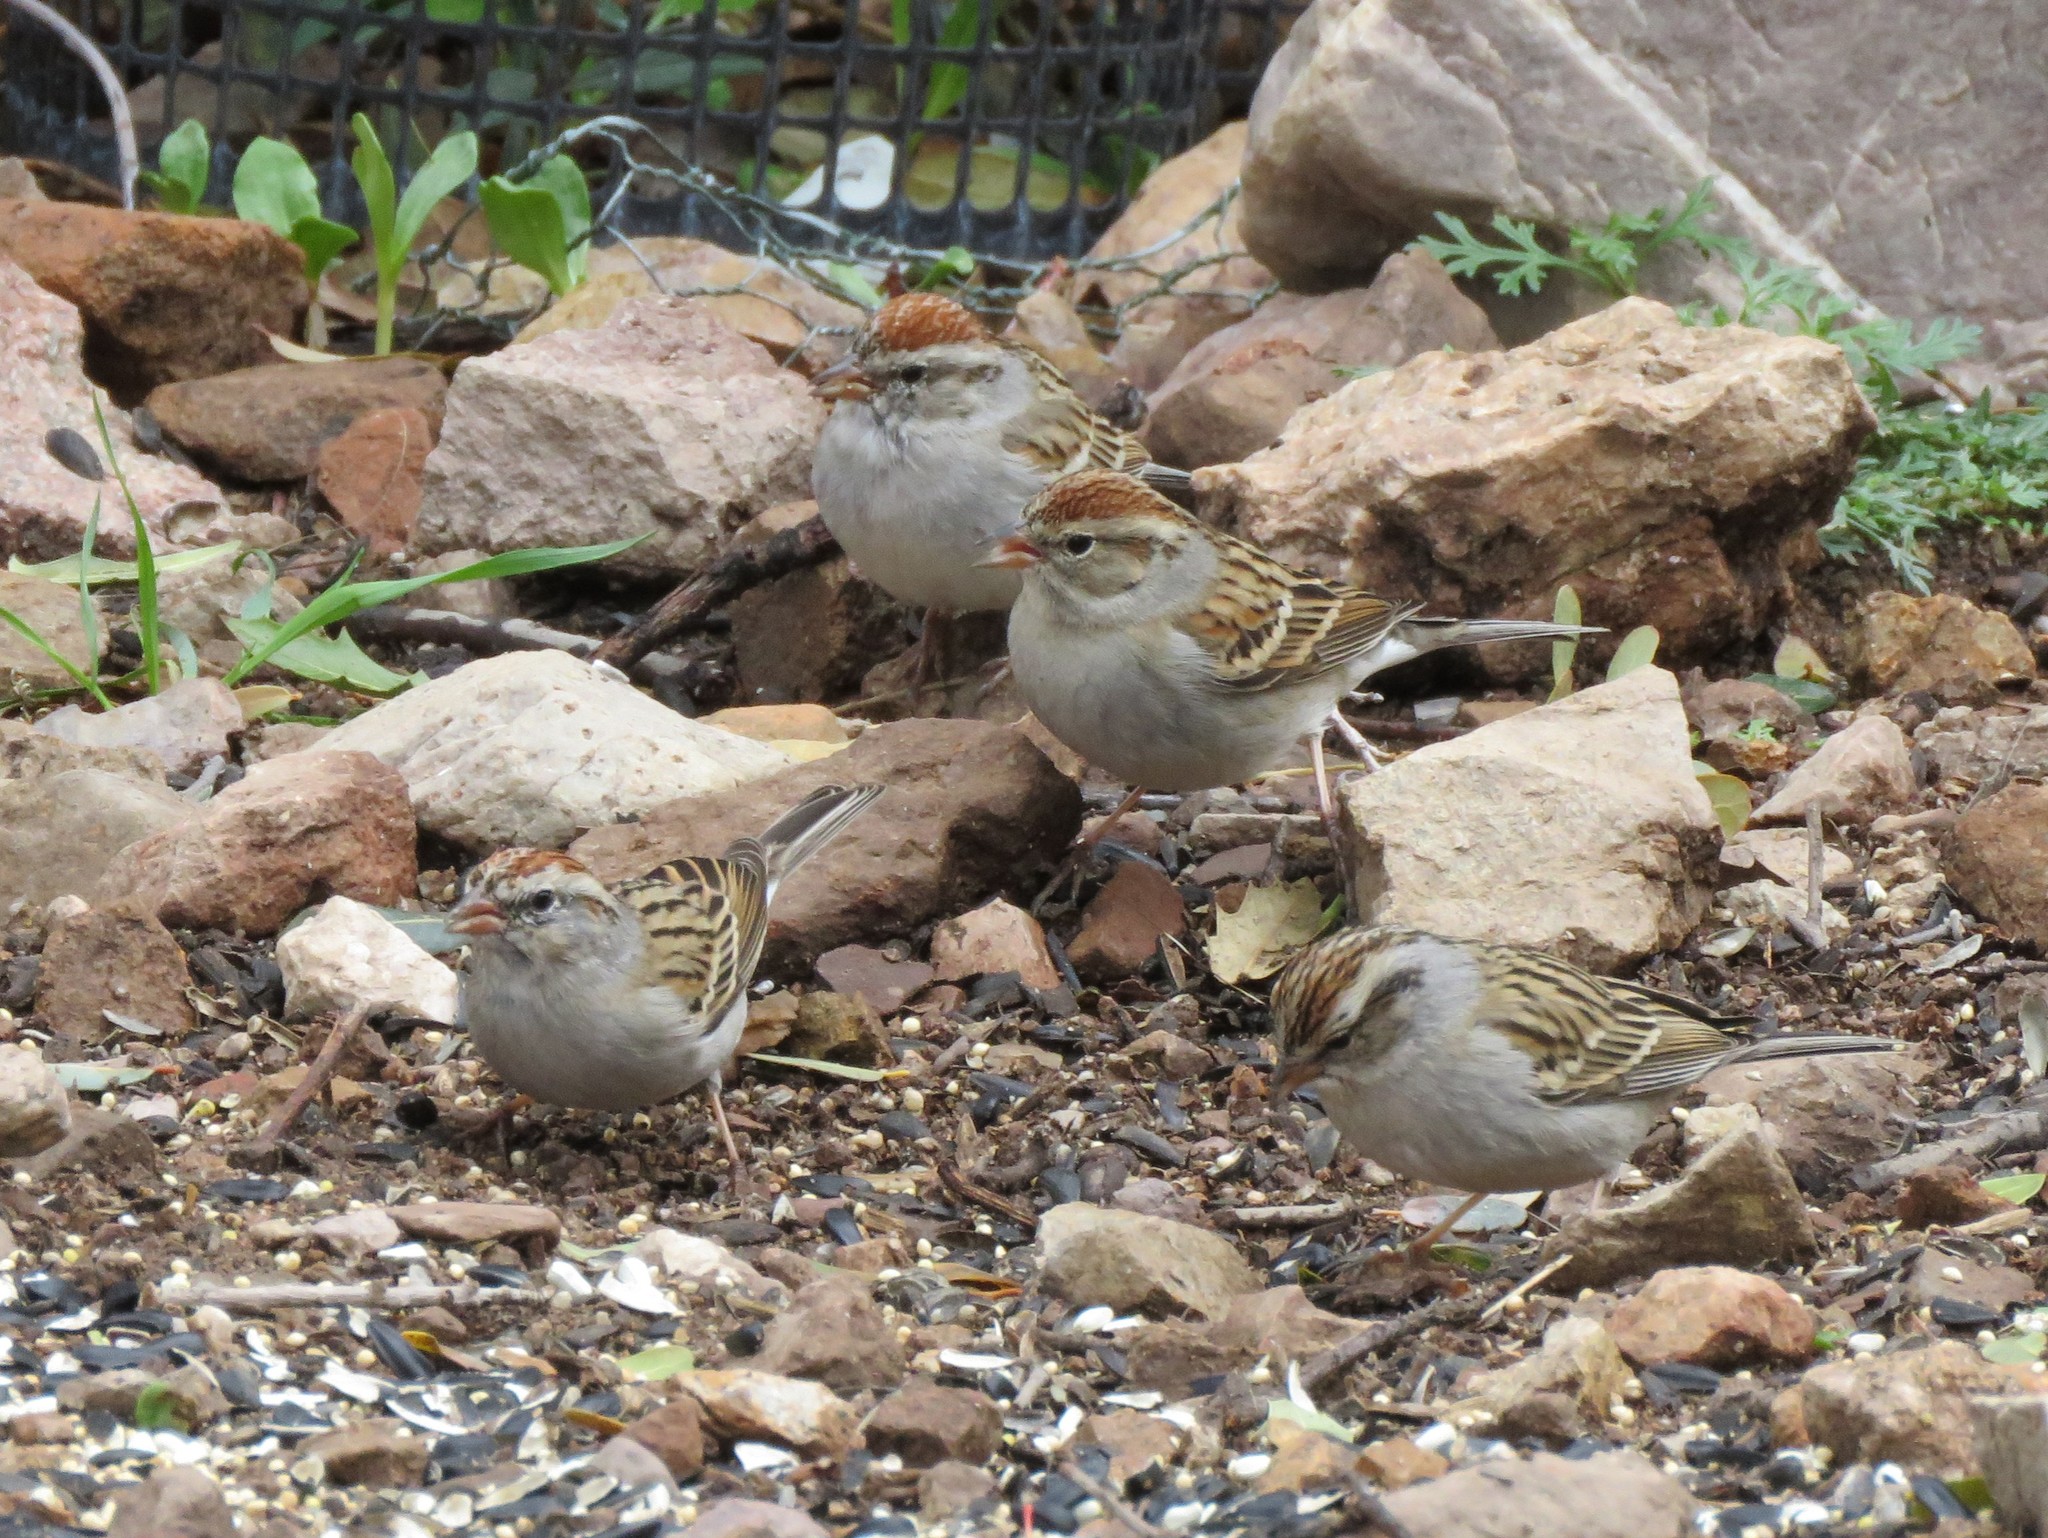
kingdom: Animalia
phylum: Chordata
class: Aves
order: Passeriformes
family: Passerellidae
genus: Spizella
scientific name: Spizella passerina
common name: Chipping sparrow
